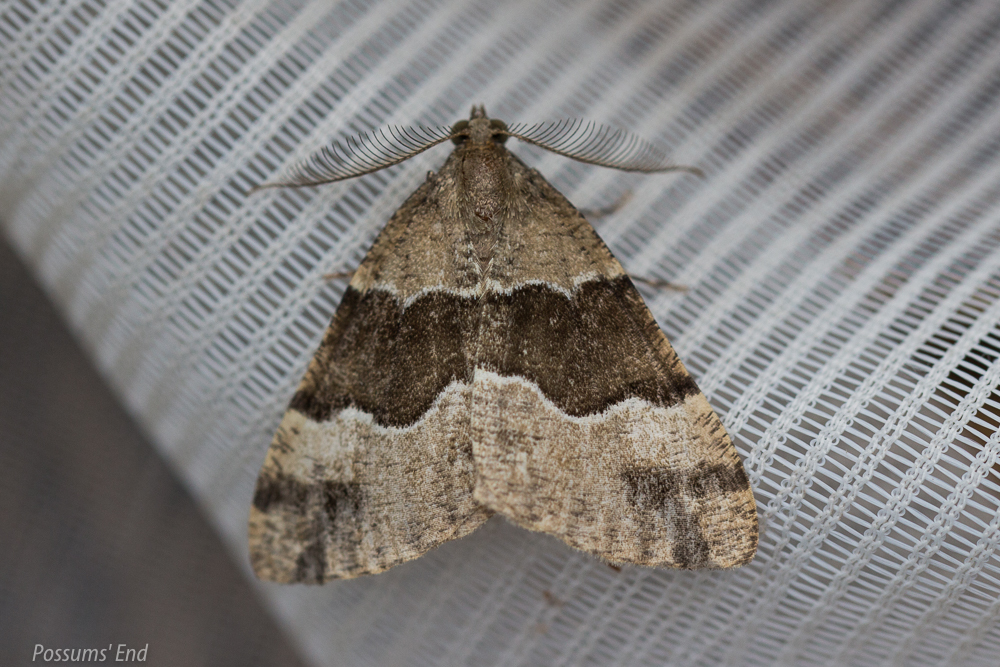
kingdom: Animalia
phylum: Arthropoda
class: Insecta
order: Lepidoptera
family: Geometridae
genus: Pseudocoremia
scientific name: Pseudocoremia
